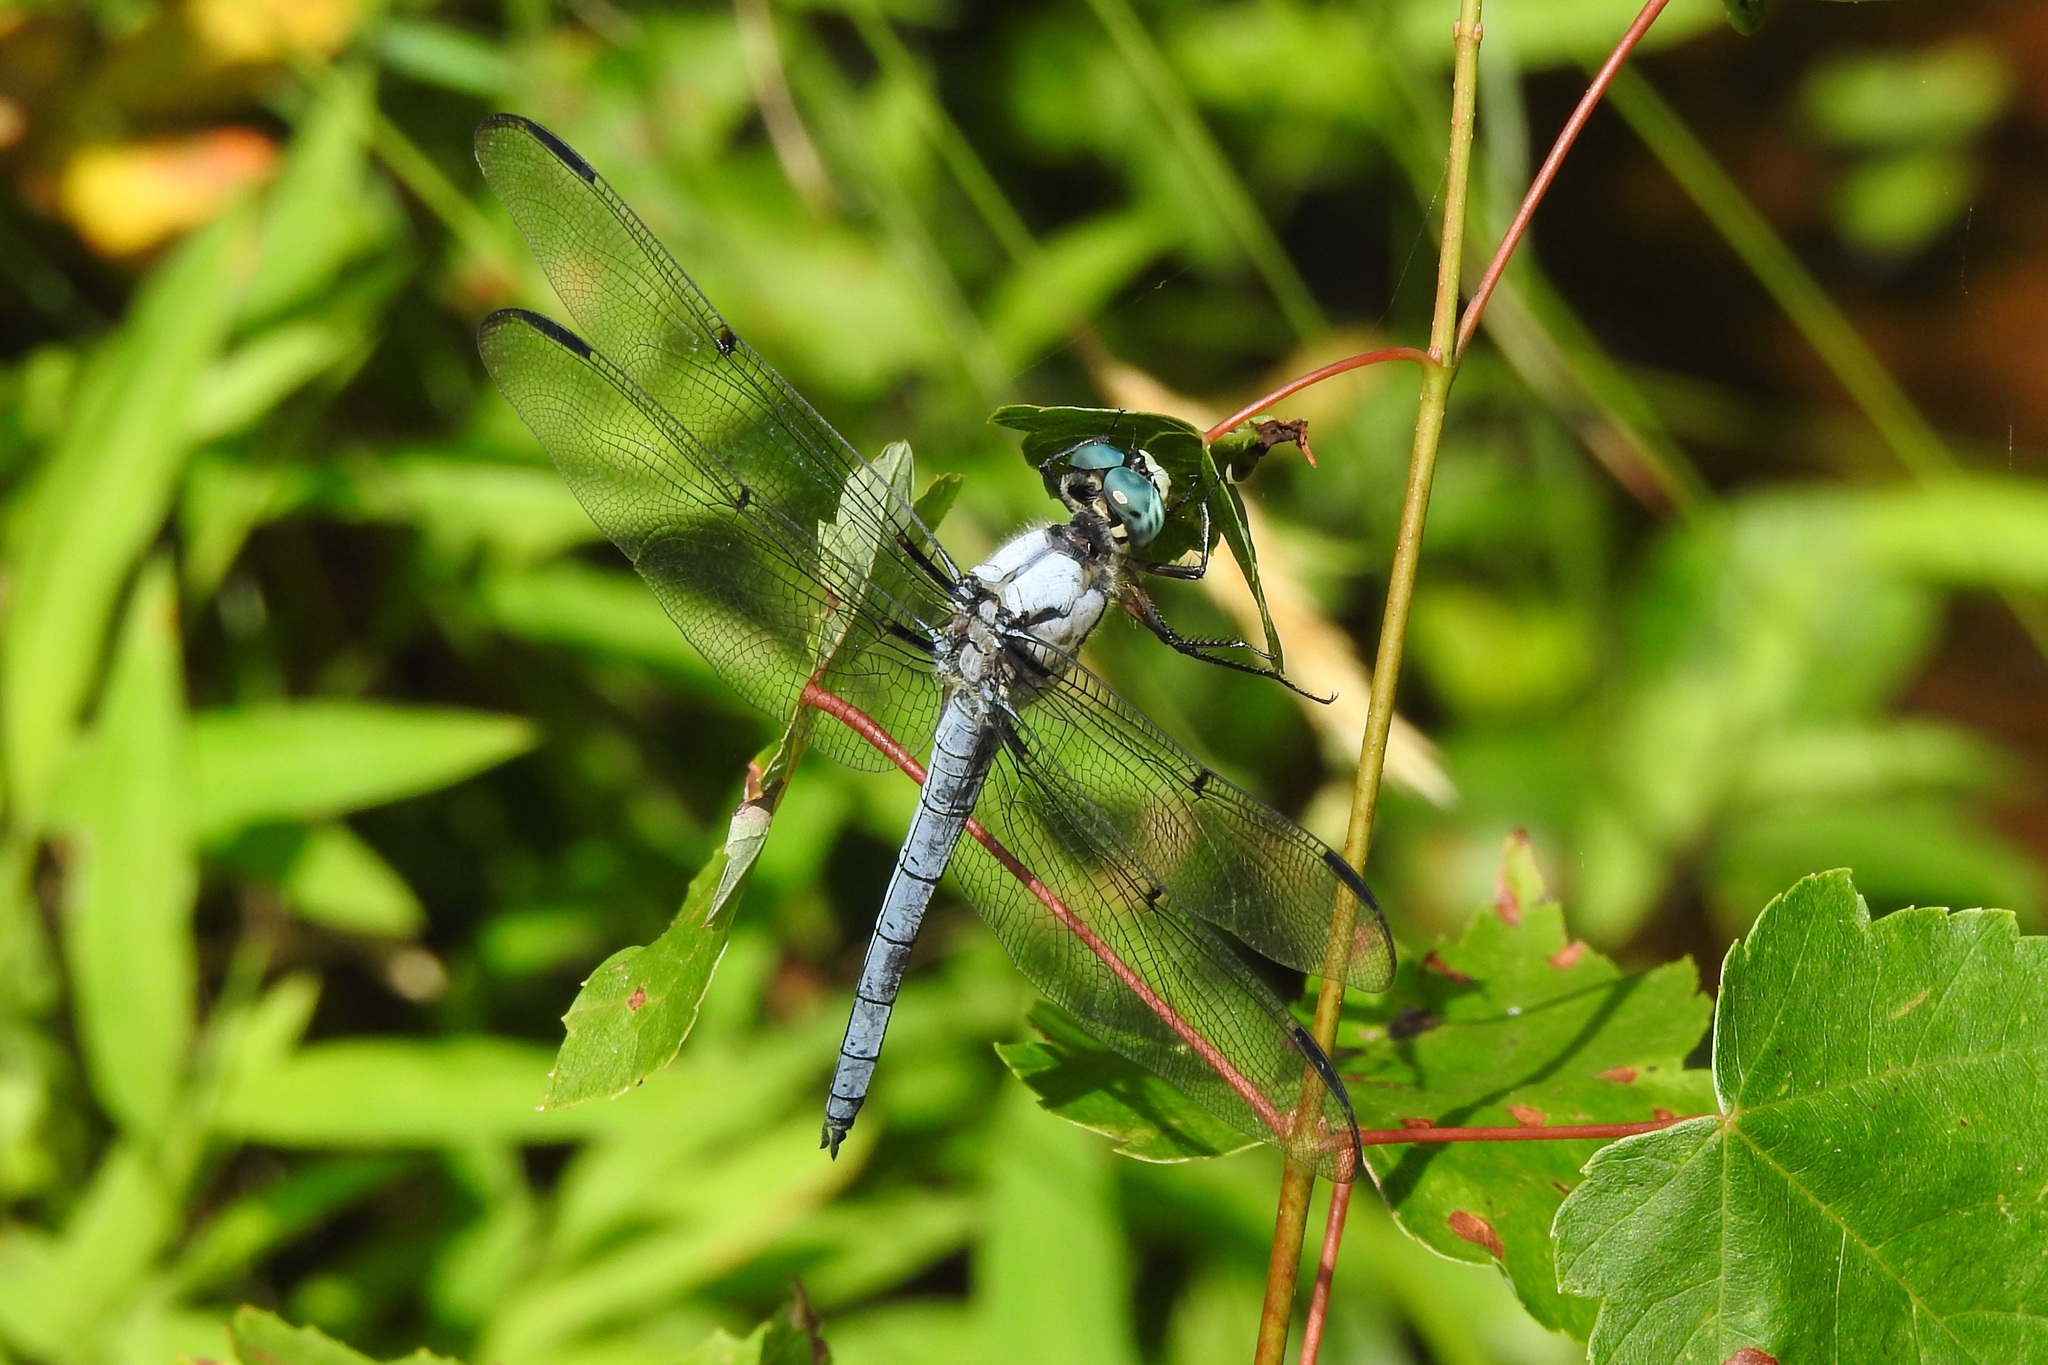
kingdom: Animalia
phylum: Arthropoda
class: Insecta
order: Odonata
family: Libellulidae
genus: Libellula
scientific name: Libellula vibrans
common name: Great blue skimmer
